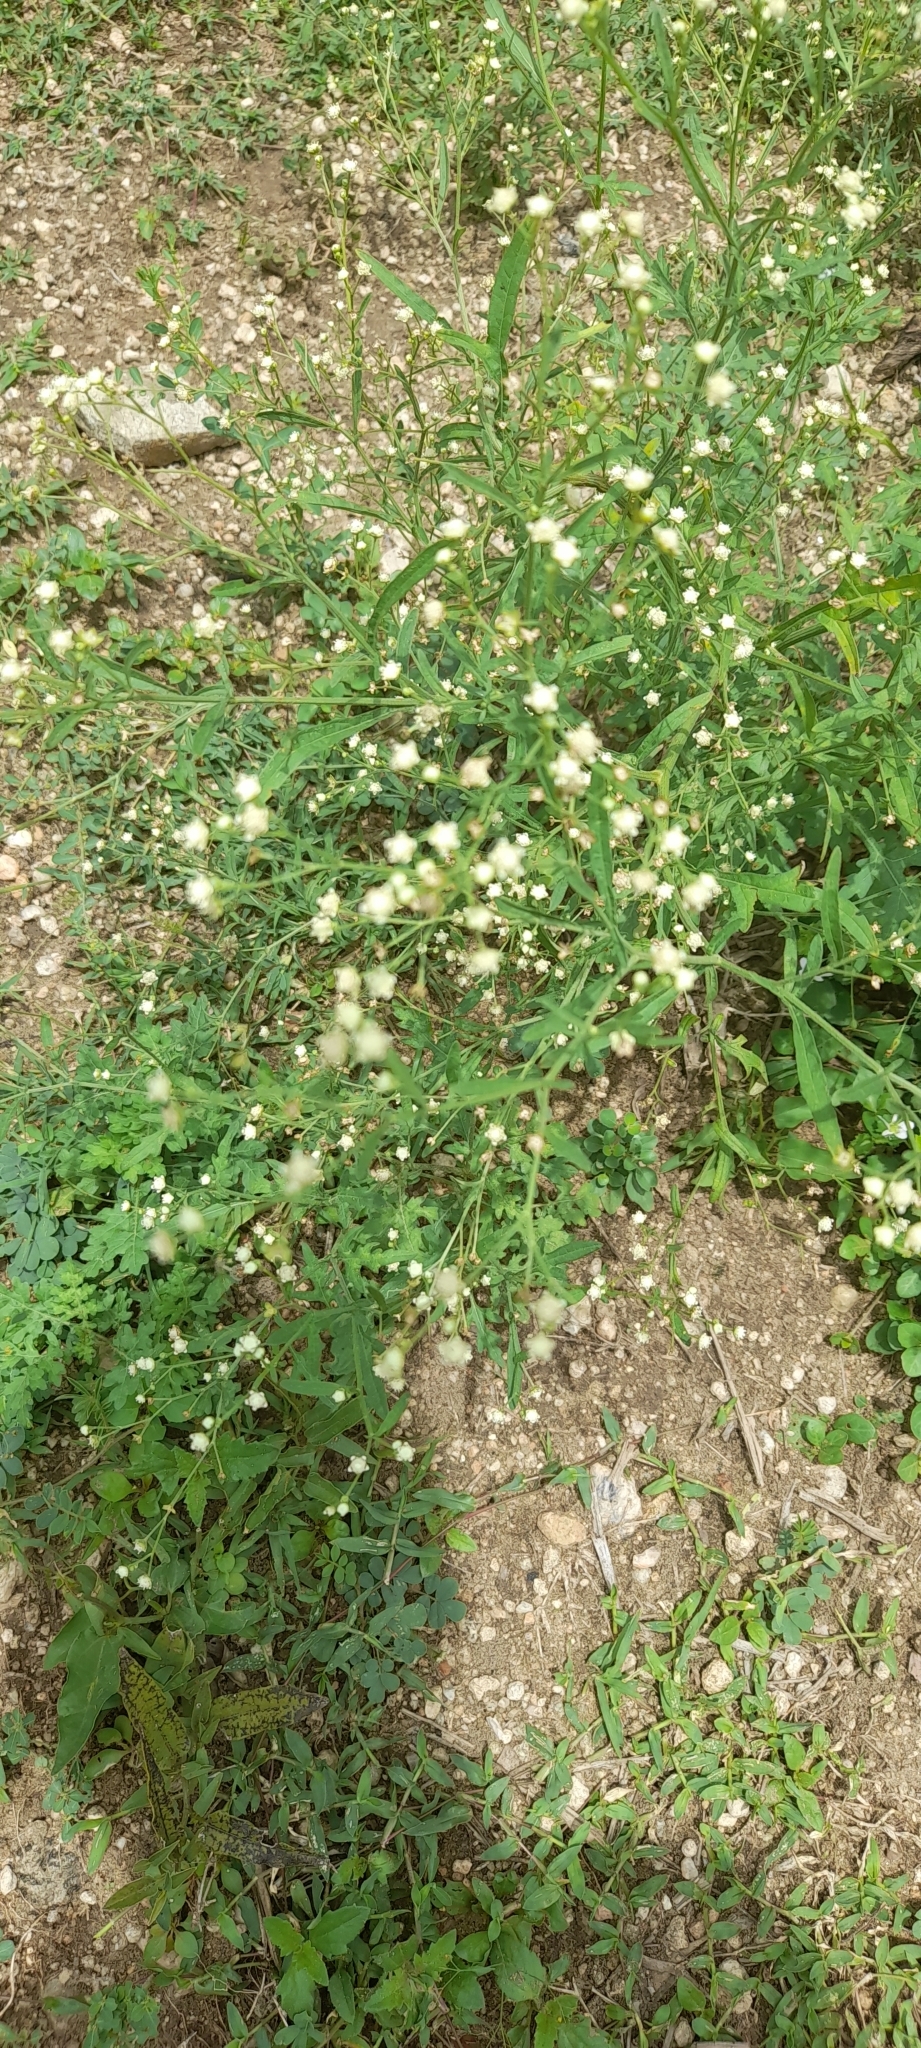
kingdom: Plantae
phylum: Tracheophyta
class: Magnoliopsida
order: Asterales
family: Asteraceae
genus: Parthenium
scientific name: Parthenium hysterophorus
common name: Santa maria feverfew
